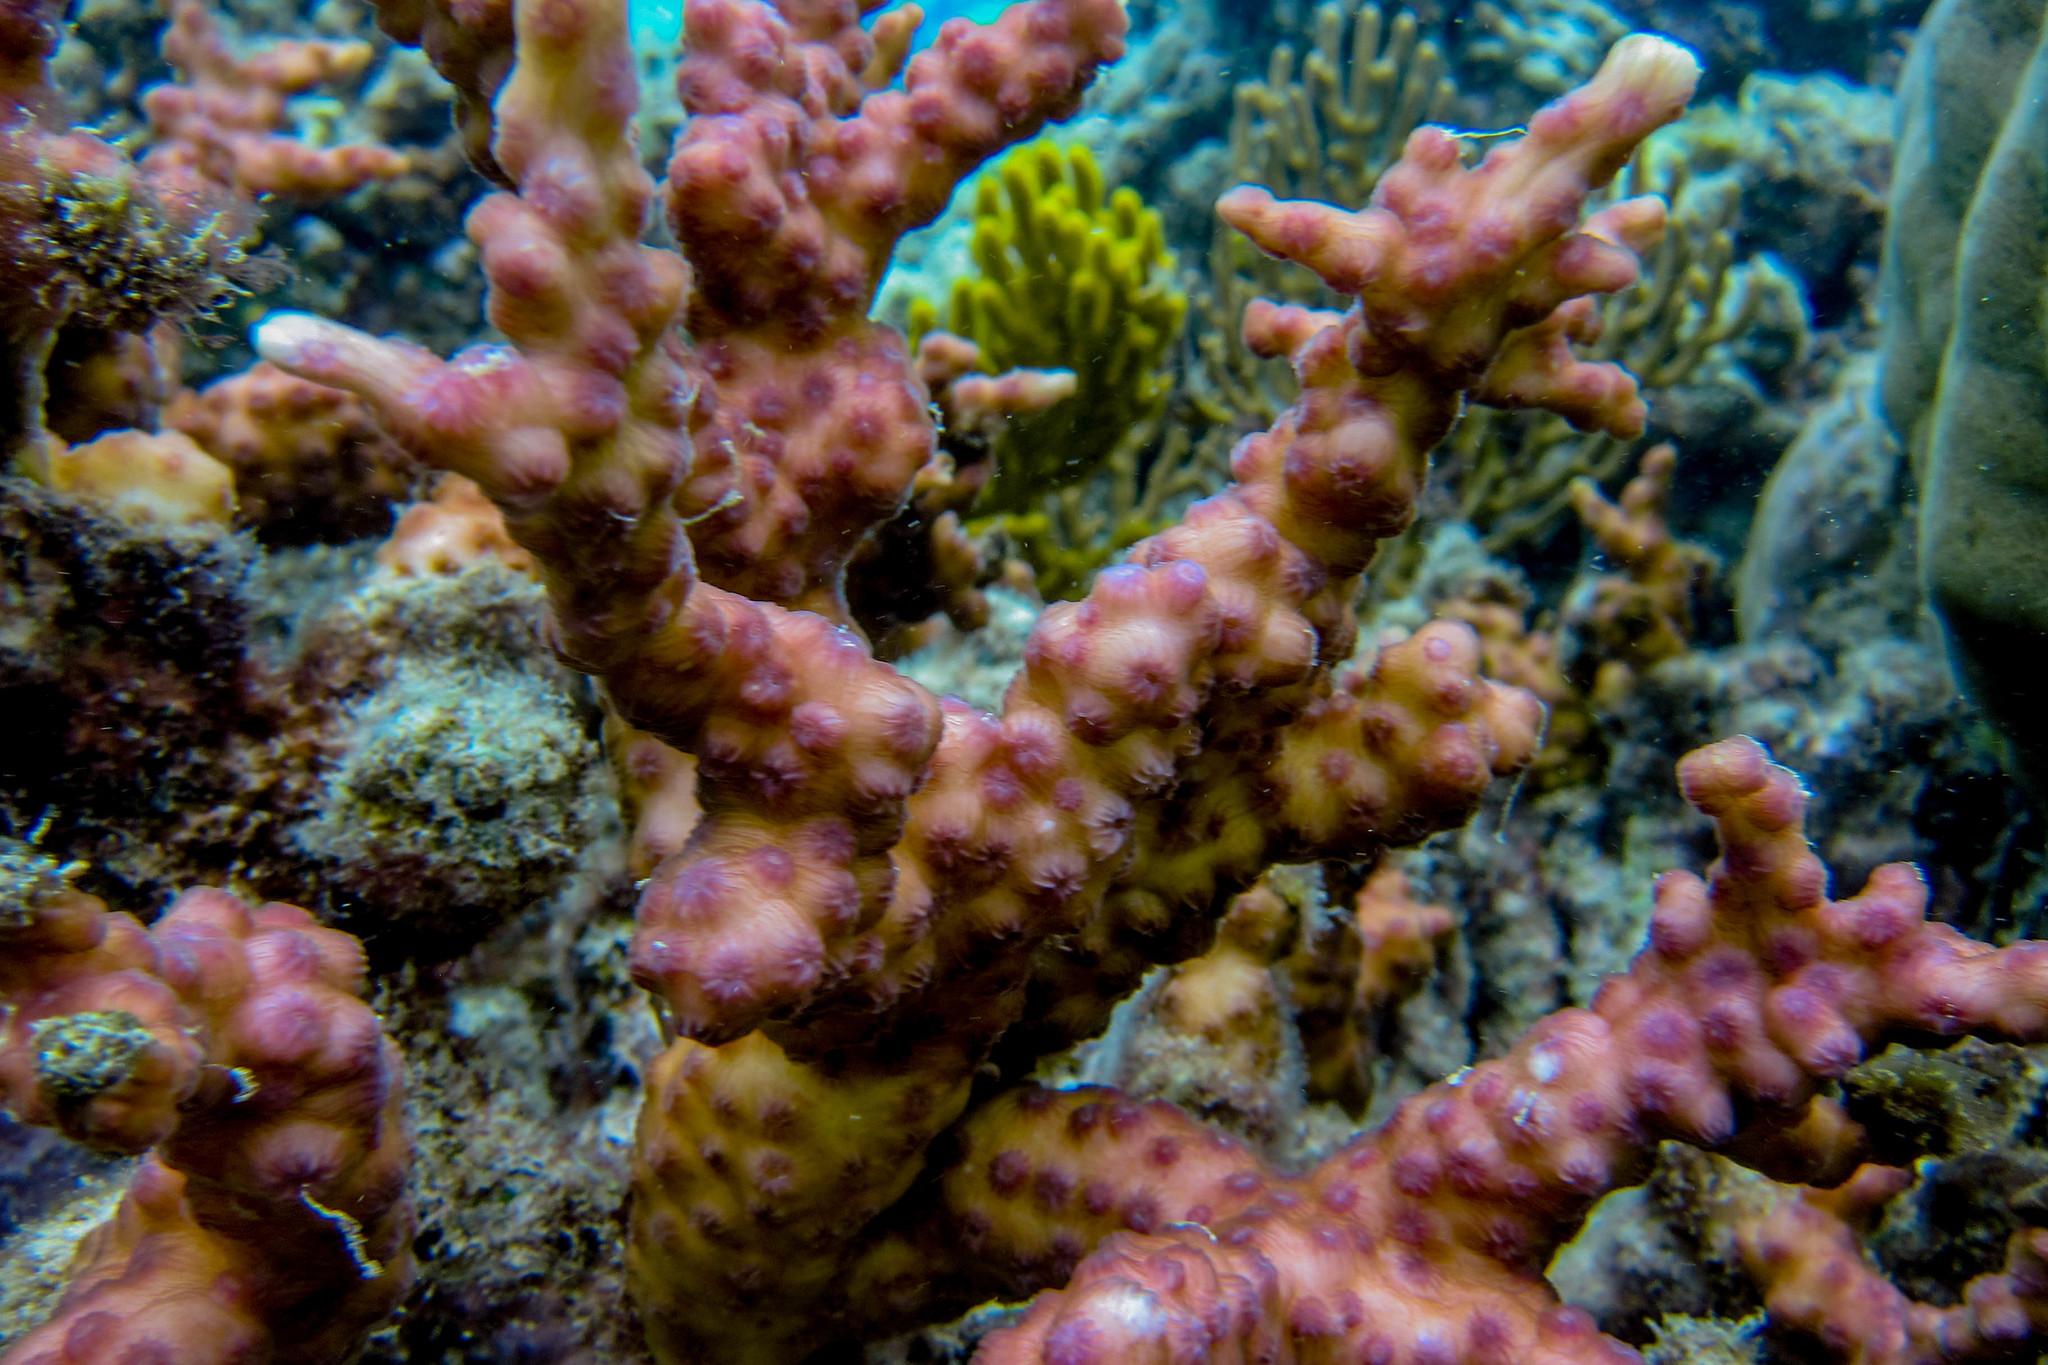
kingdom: Animalia
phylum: Cnidaria
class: Anthozoa
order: Scleractinia
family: Merulinidae
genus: Echinopora
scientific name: Echinopora mammiformis
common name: Hedgehog coral
